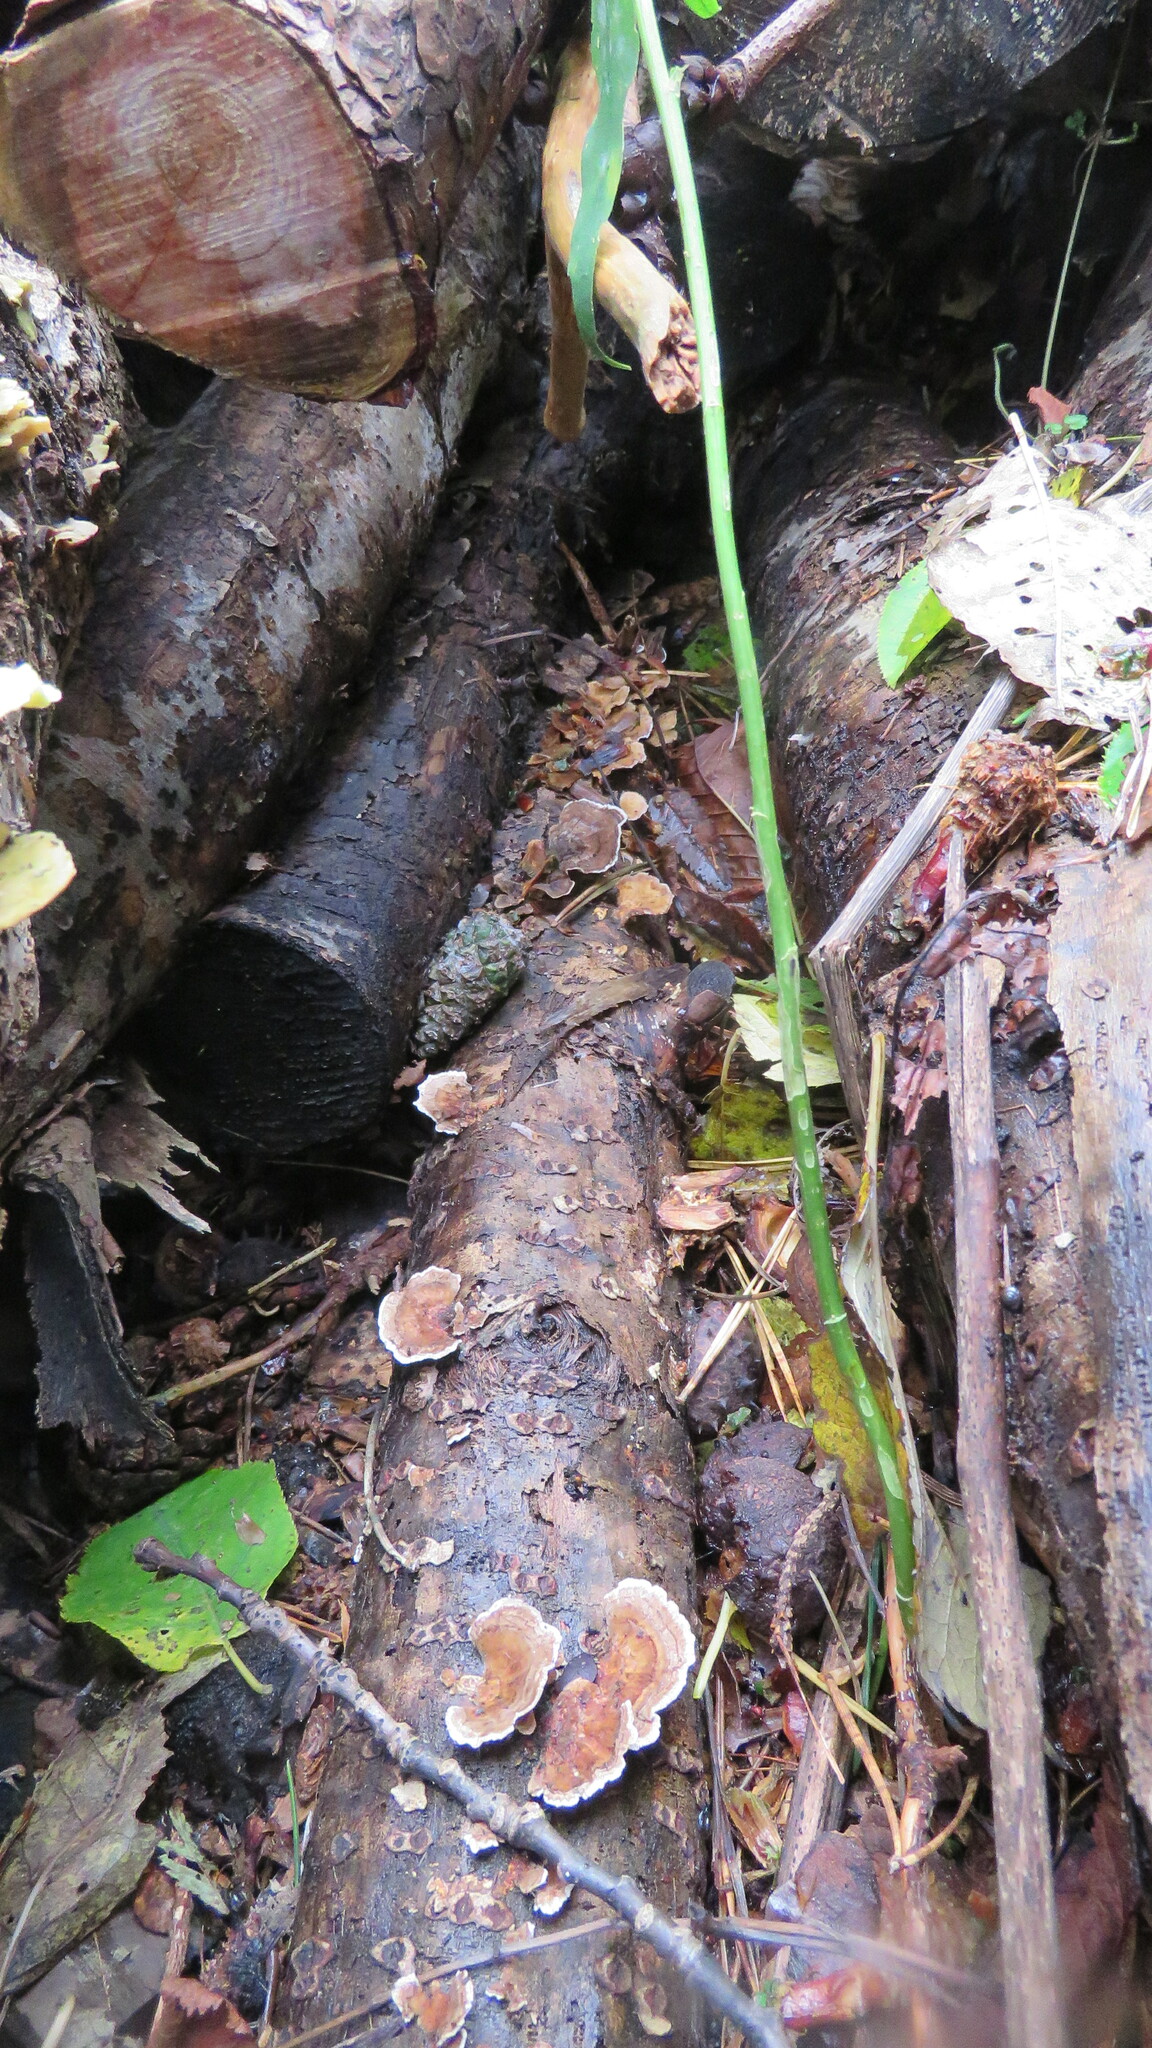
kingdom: Fungi
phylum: Basidiomycota
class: Agaricomycetes
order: Polyporales
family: Polyporaceae
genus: Trametes
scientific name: Trametes ochracea
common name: Ochre bracket
